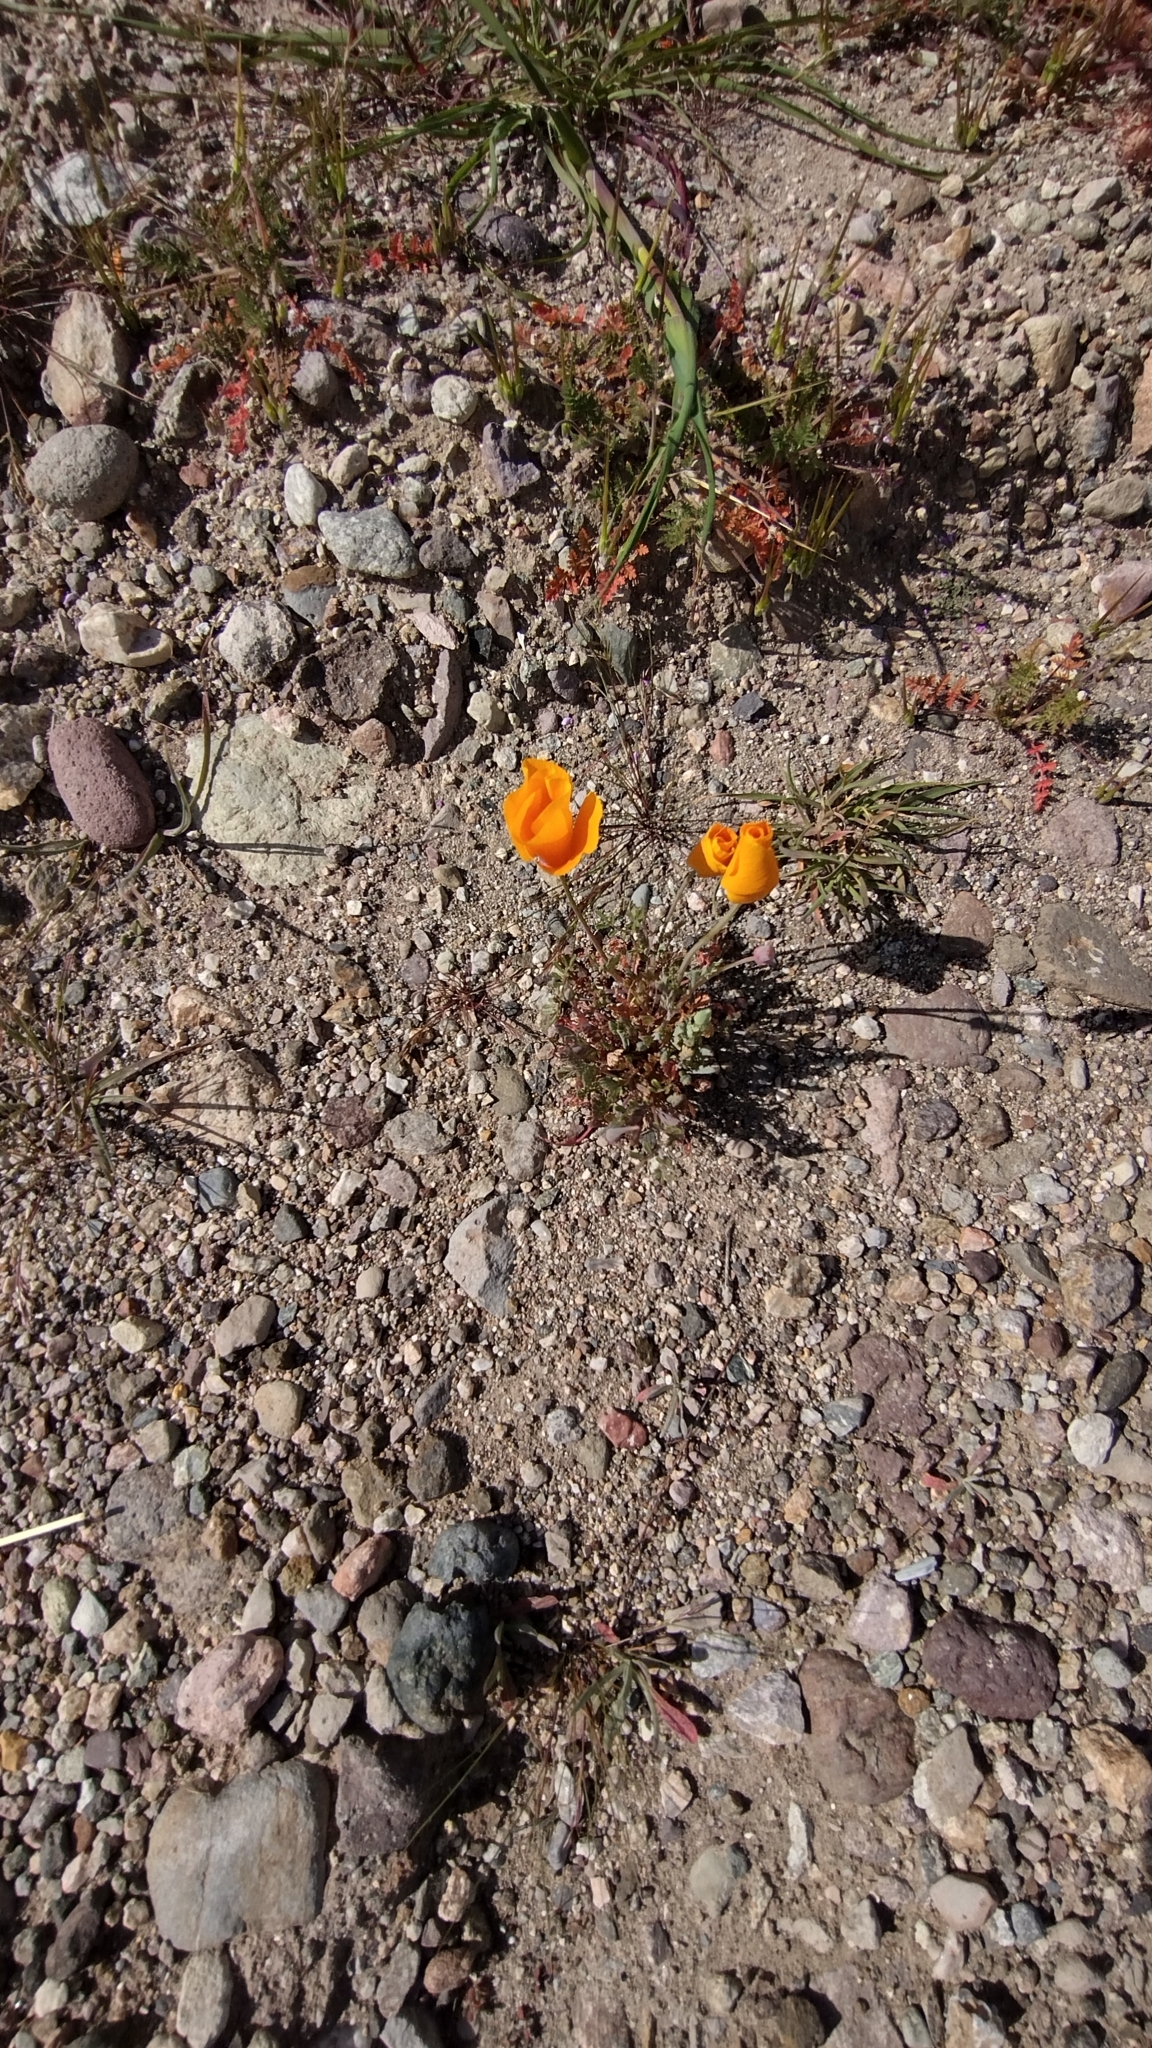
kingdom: Plantae
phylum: Tracheophyta
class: Magnoliopsida
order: Ranunculales
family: Papaveraceae
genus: Eschscholzia
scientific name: Eschscholzia californica
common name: California poppy
